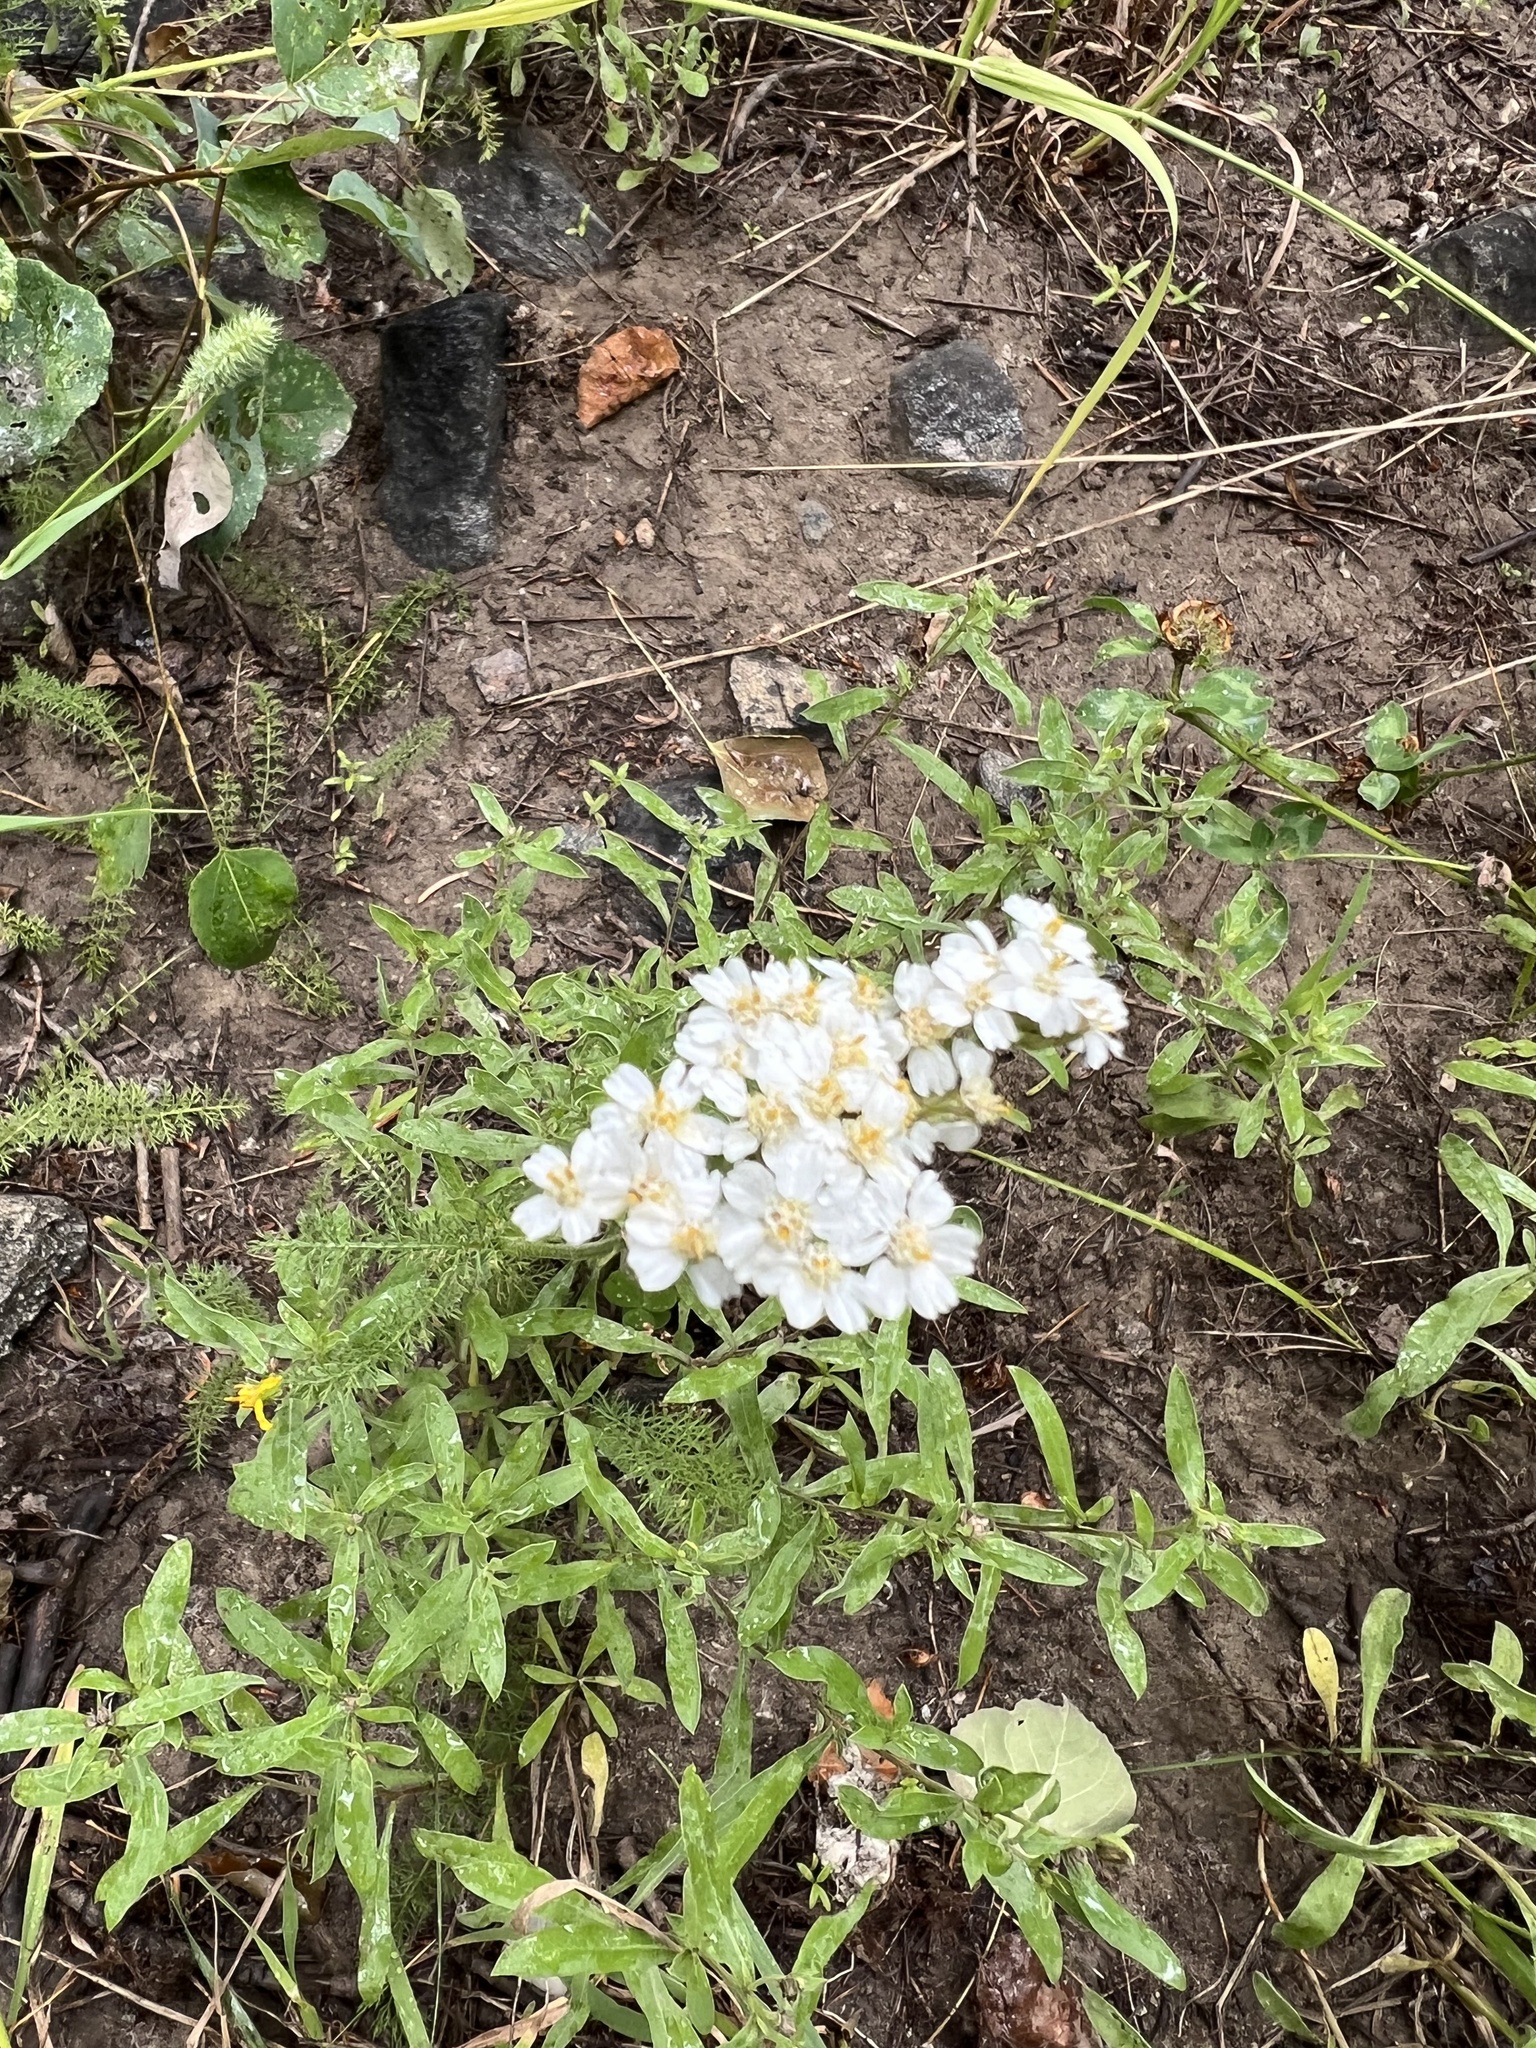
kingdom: Plantae
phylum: Tracheophyta
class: Magnoliopsida
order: Asterales
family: Asteraceae
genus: Achillea
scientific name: Achillea millefolium
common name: Yarrow
